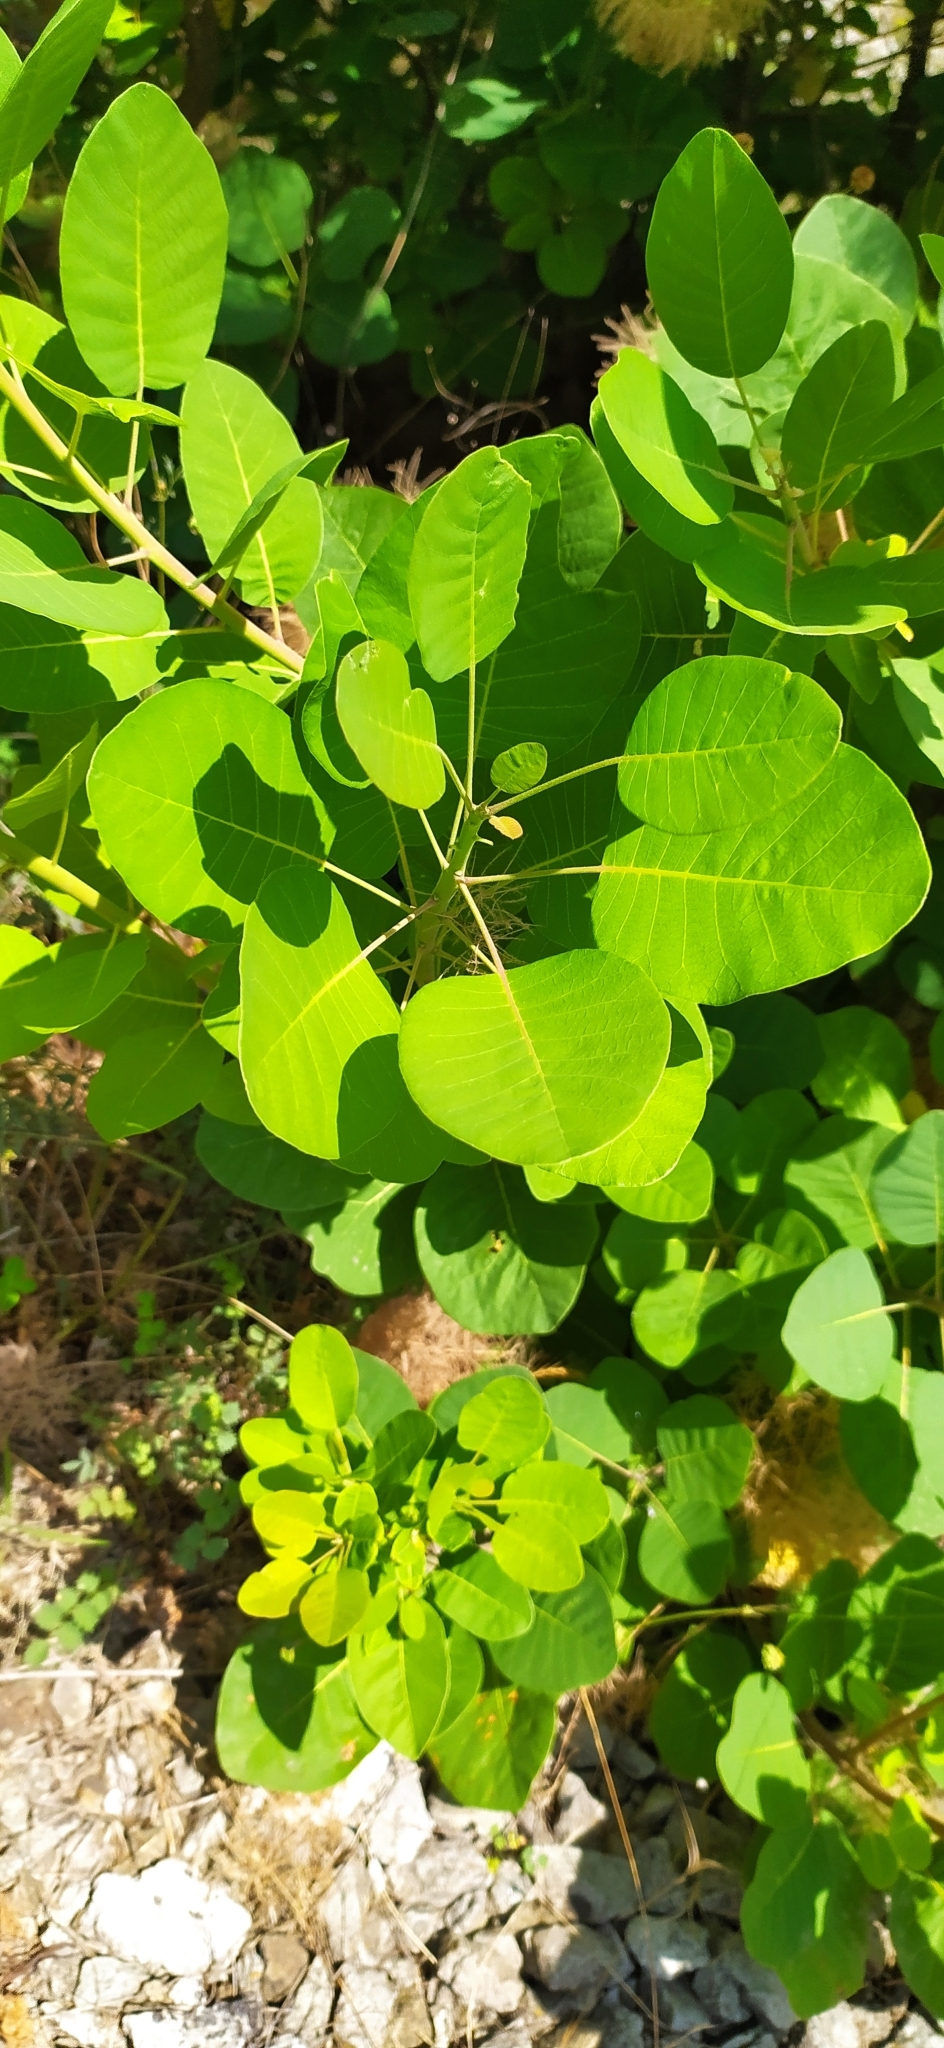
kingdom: Plantae
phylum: Tracheophyta
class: Magnoliopsida
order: Sapindales
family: Anacardiaceae
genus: Cotinus
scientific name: Cotinus coggygria
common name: Smoke-tree
